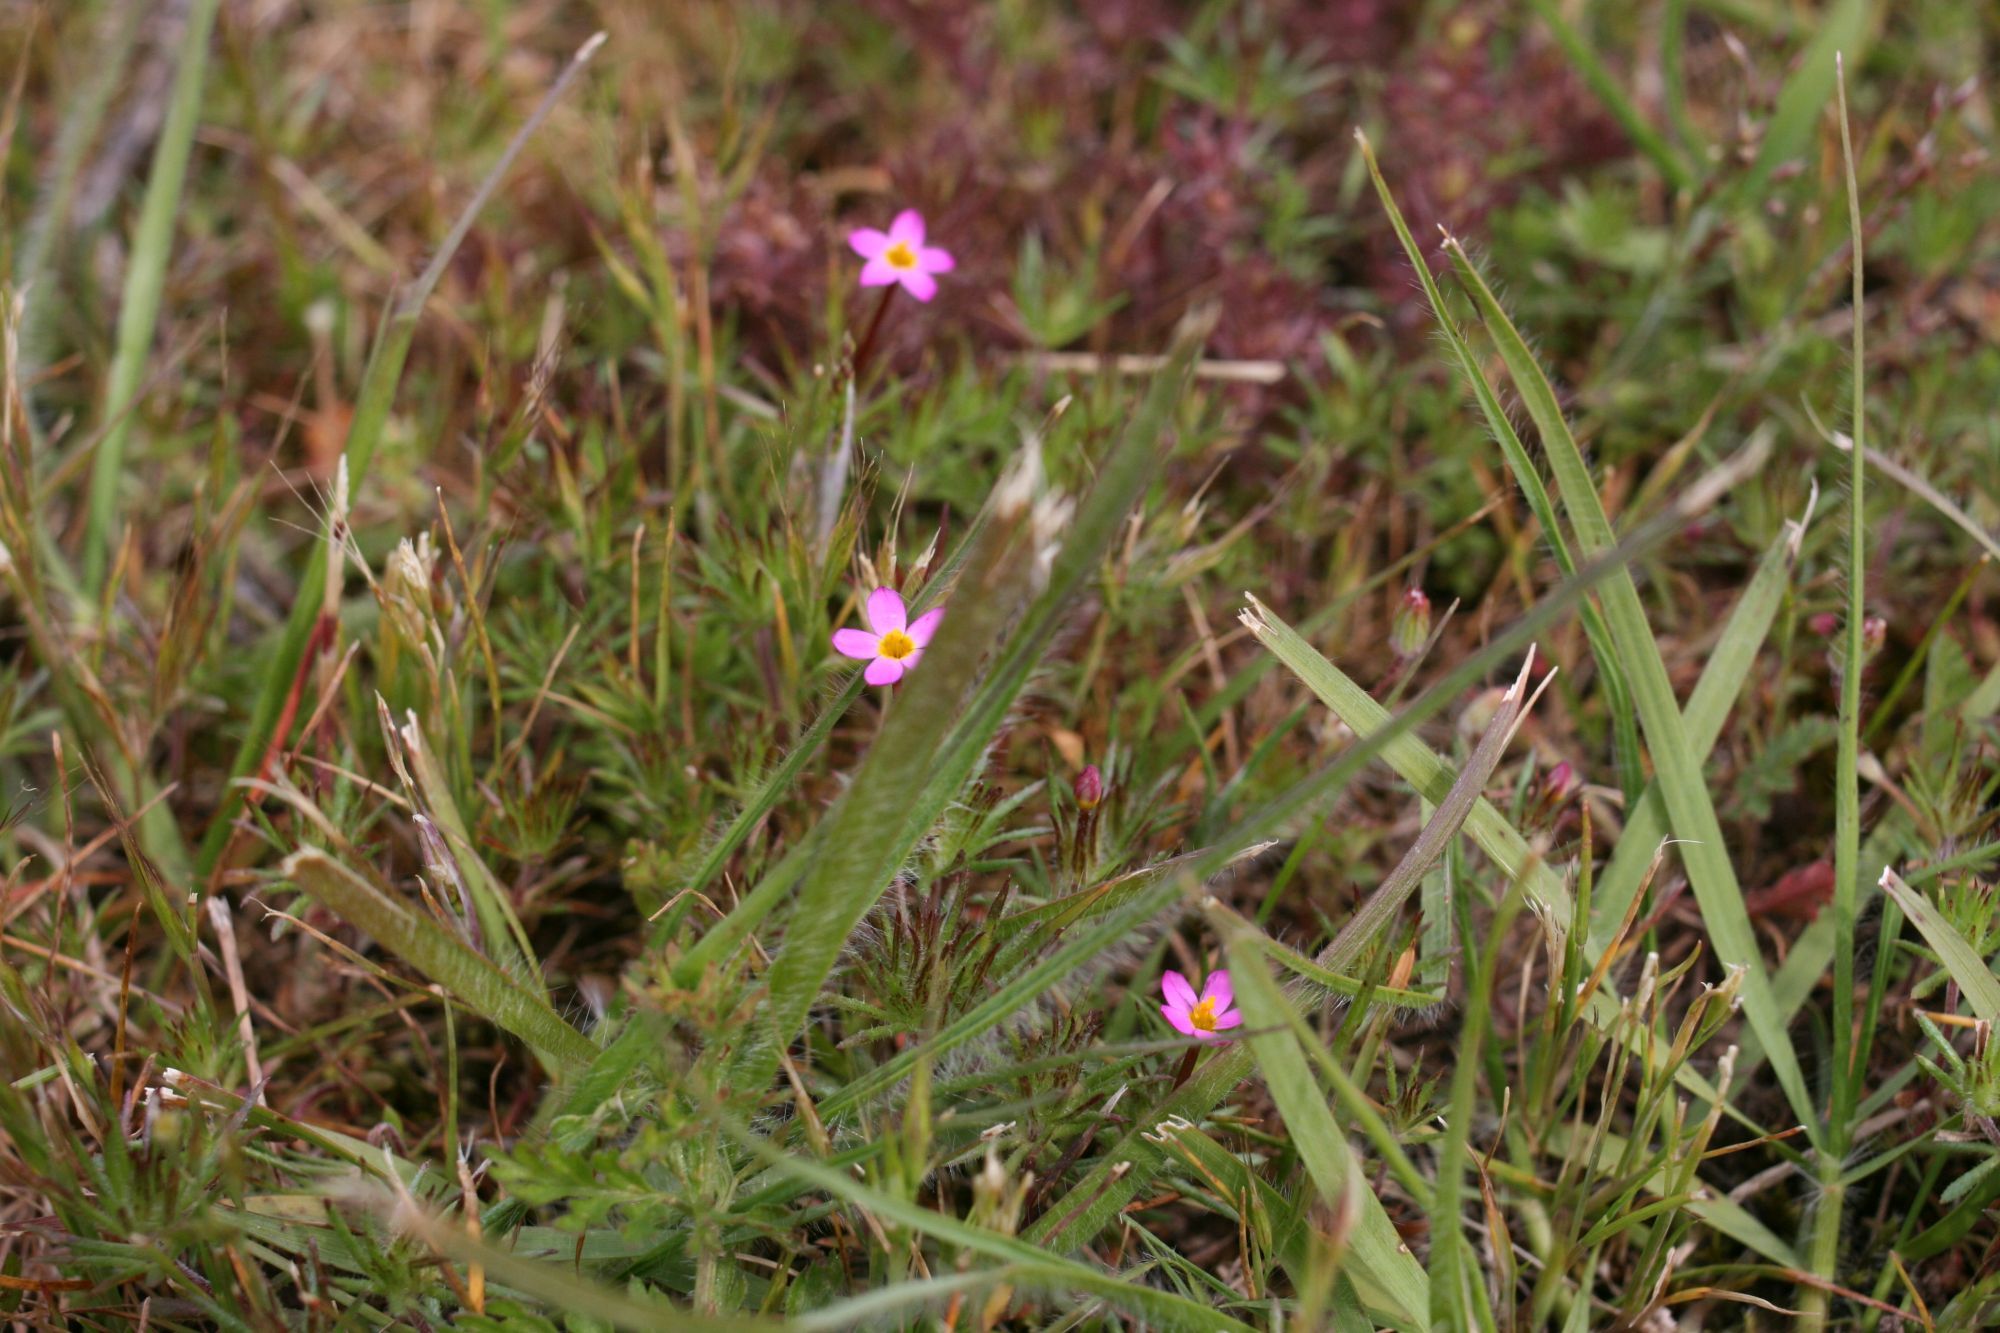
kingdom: Plantae
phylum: Tracheophyta
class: Magnoliopsida
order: Ericales
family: Polemoniaceae
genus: Leptosiphon
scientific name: Leptosiphon bicolor
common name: True babystars
